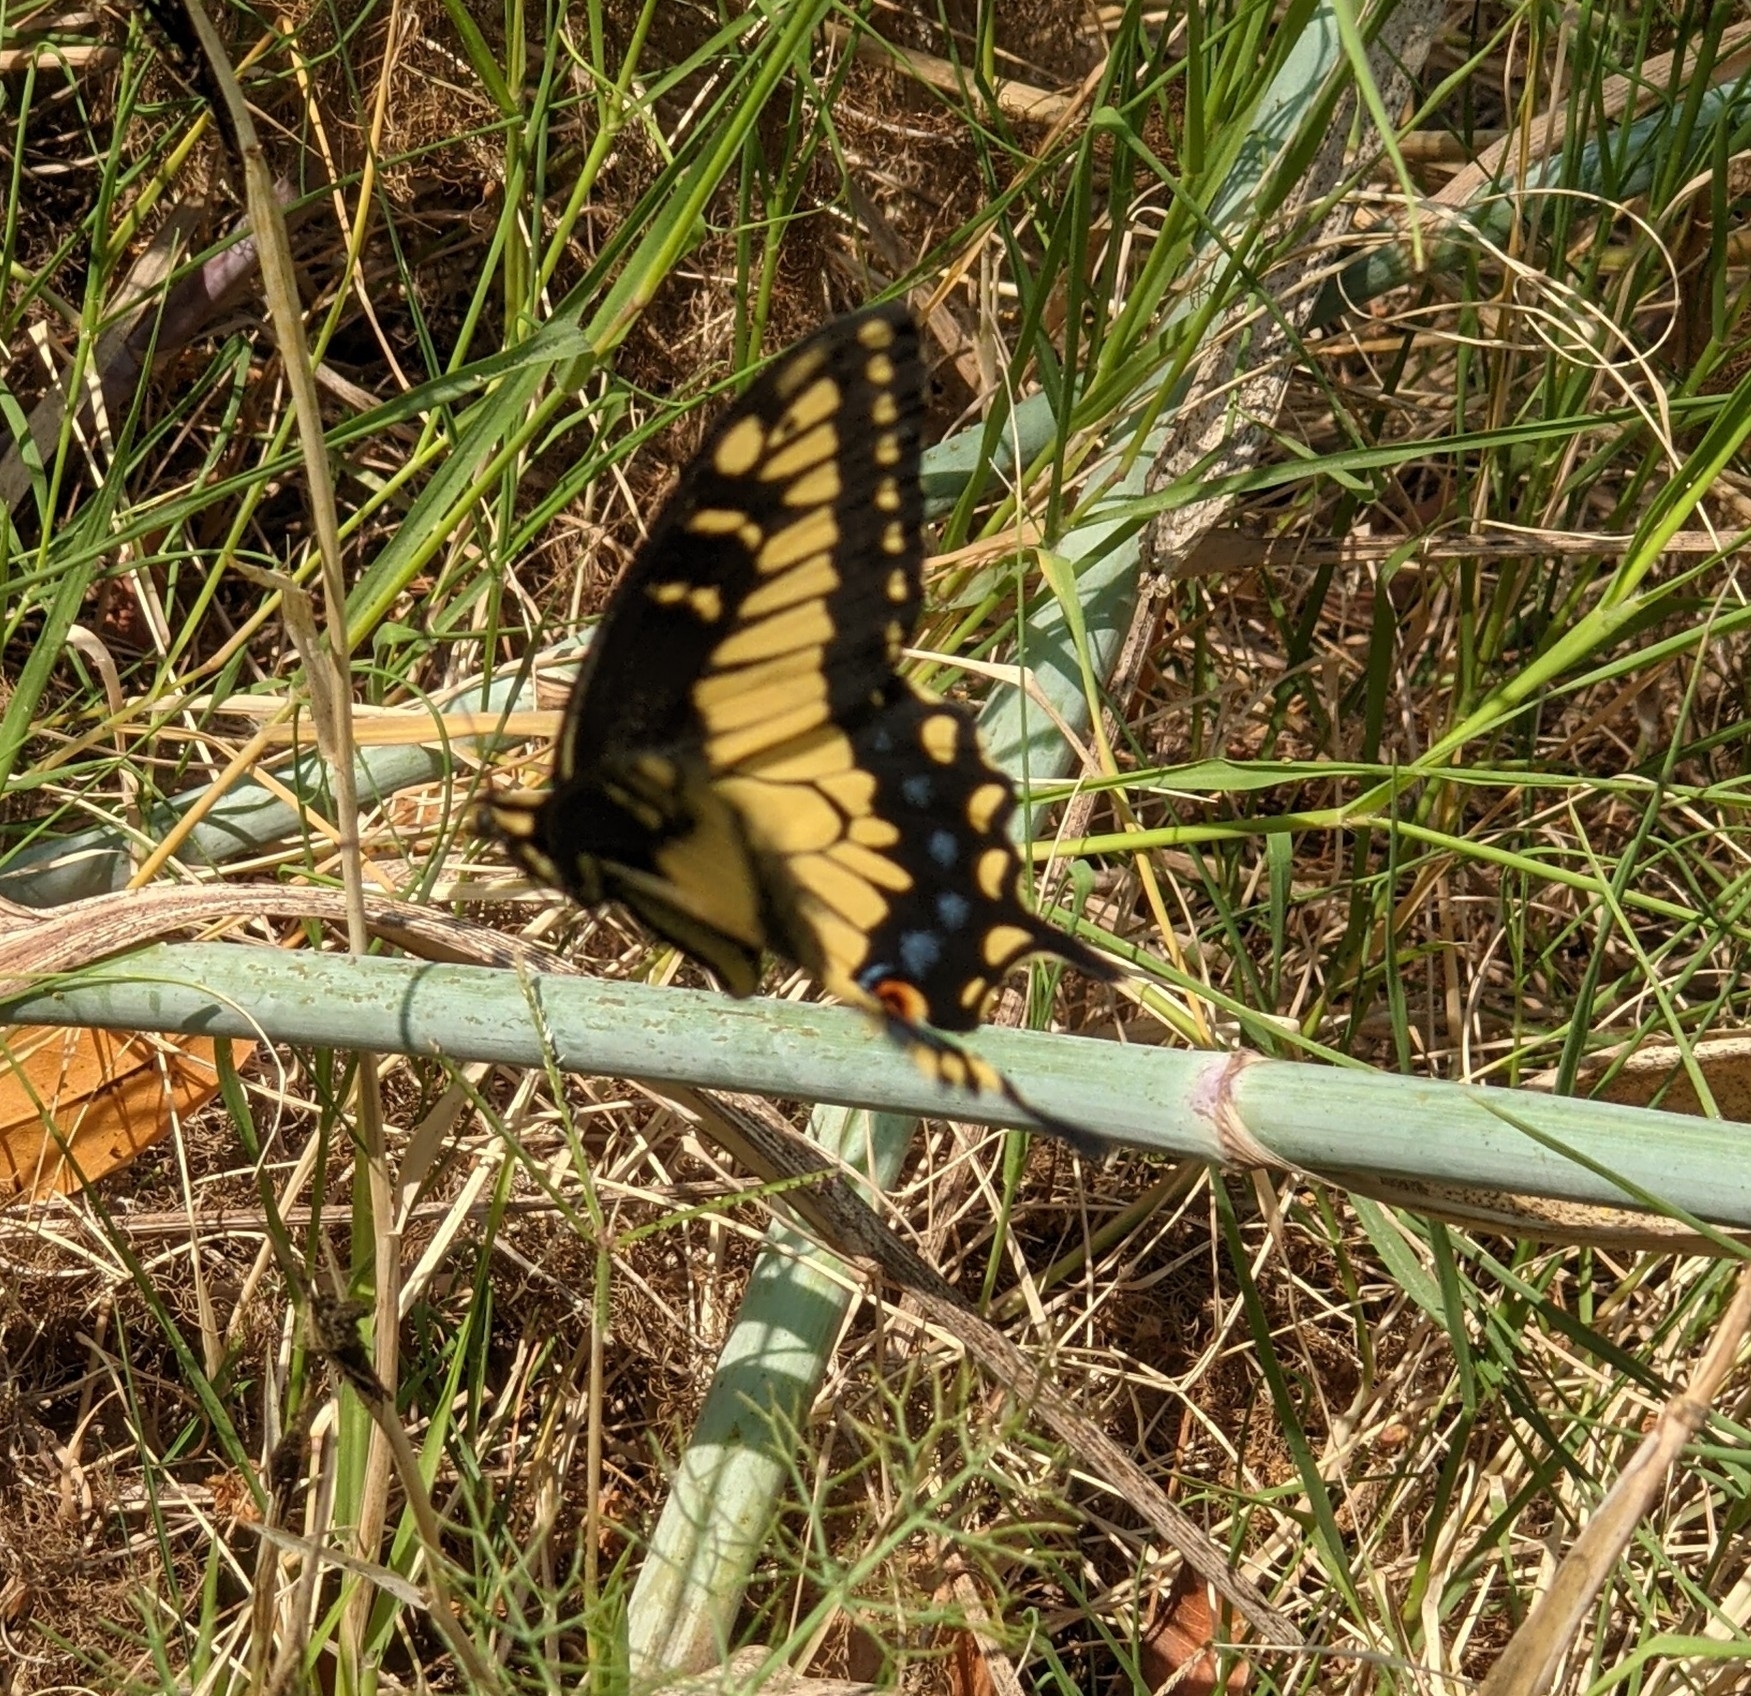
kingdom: Animalia
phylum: Arthropoda
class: Insecta
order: Lepidoptera
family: Papilionidae
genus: Papilio
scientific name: Papilio zelicaon
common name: Anise swallowtail
